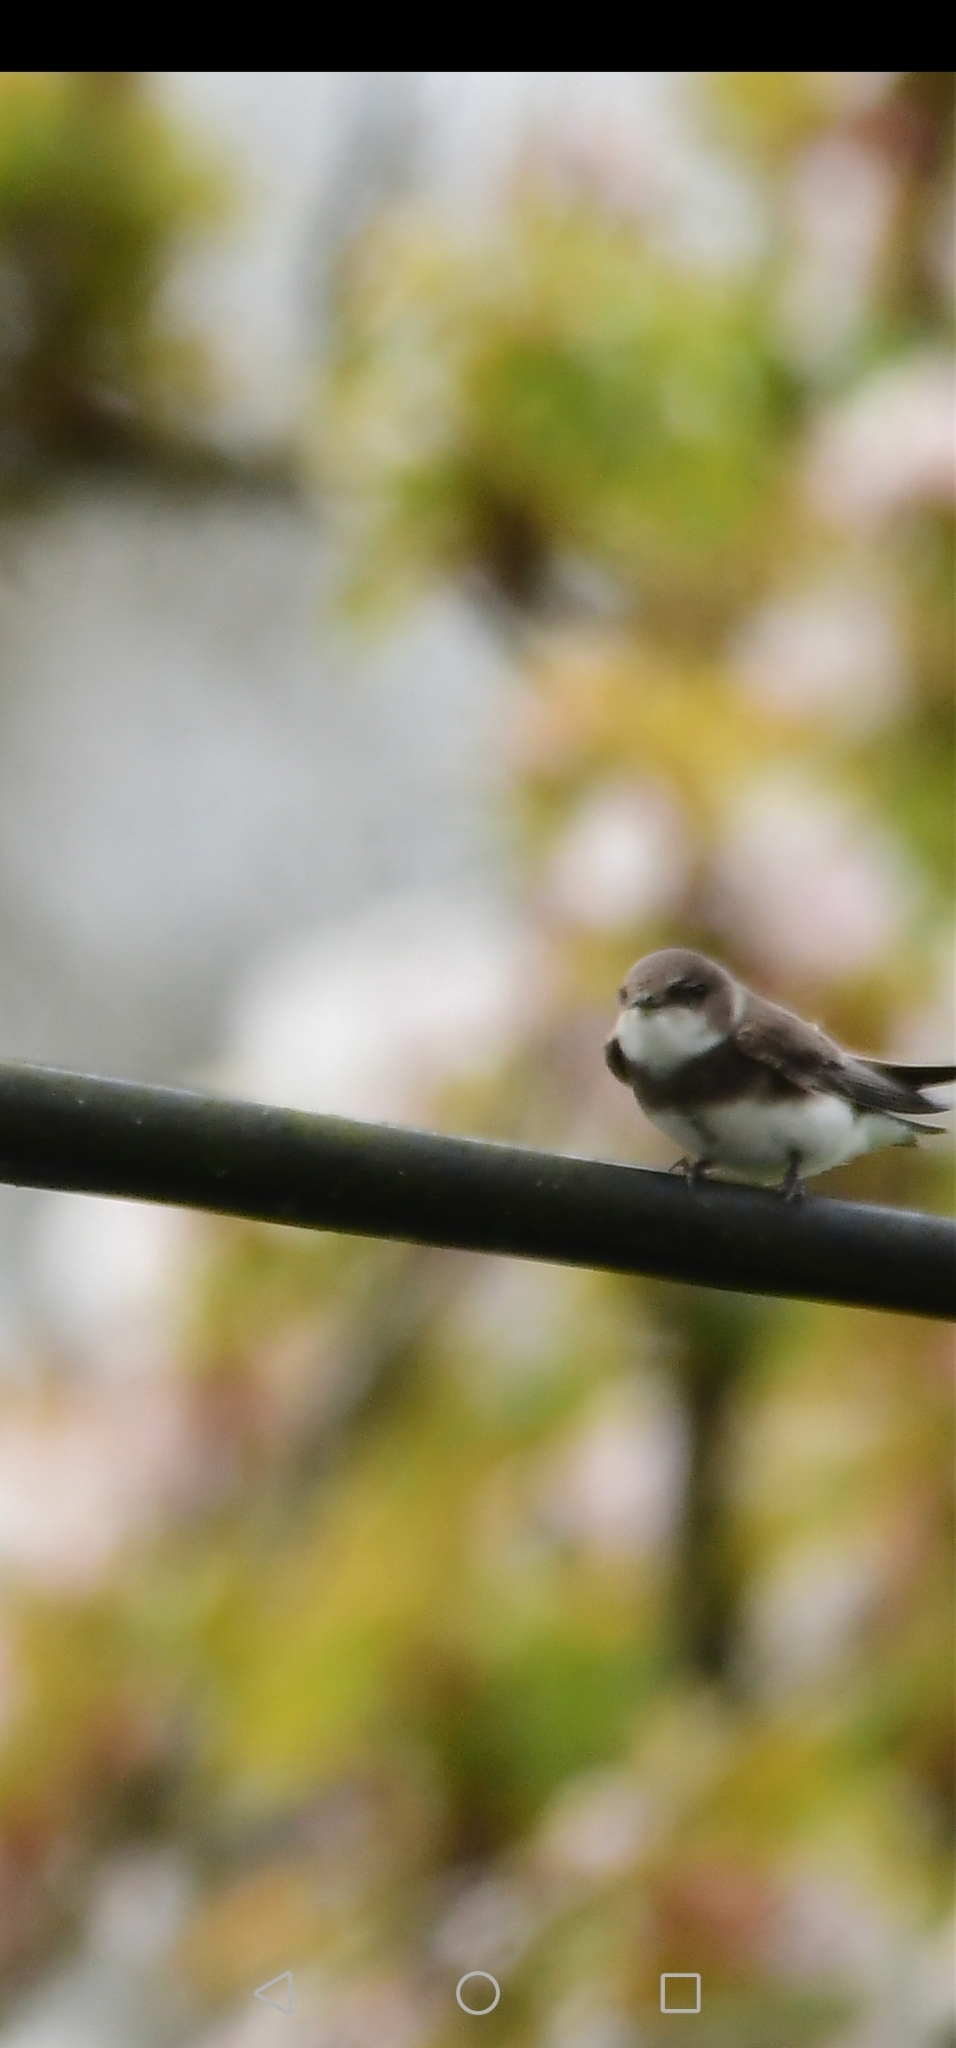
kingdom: Animalia
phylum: Chordata
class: Aves
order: Passeriformes
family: Hirundinidae
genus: Riparia
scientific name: Riparia riparia
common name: Sand martin
